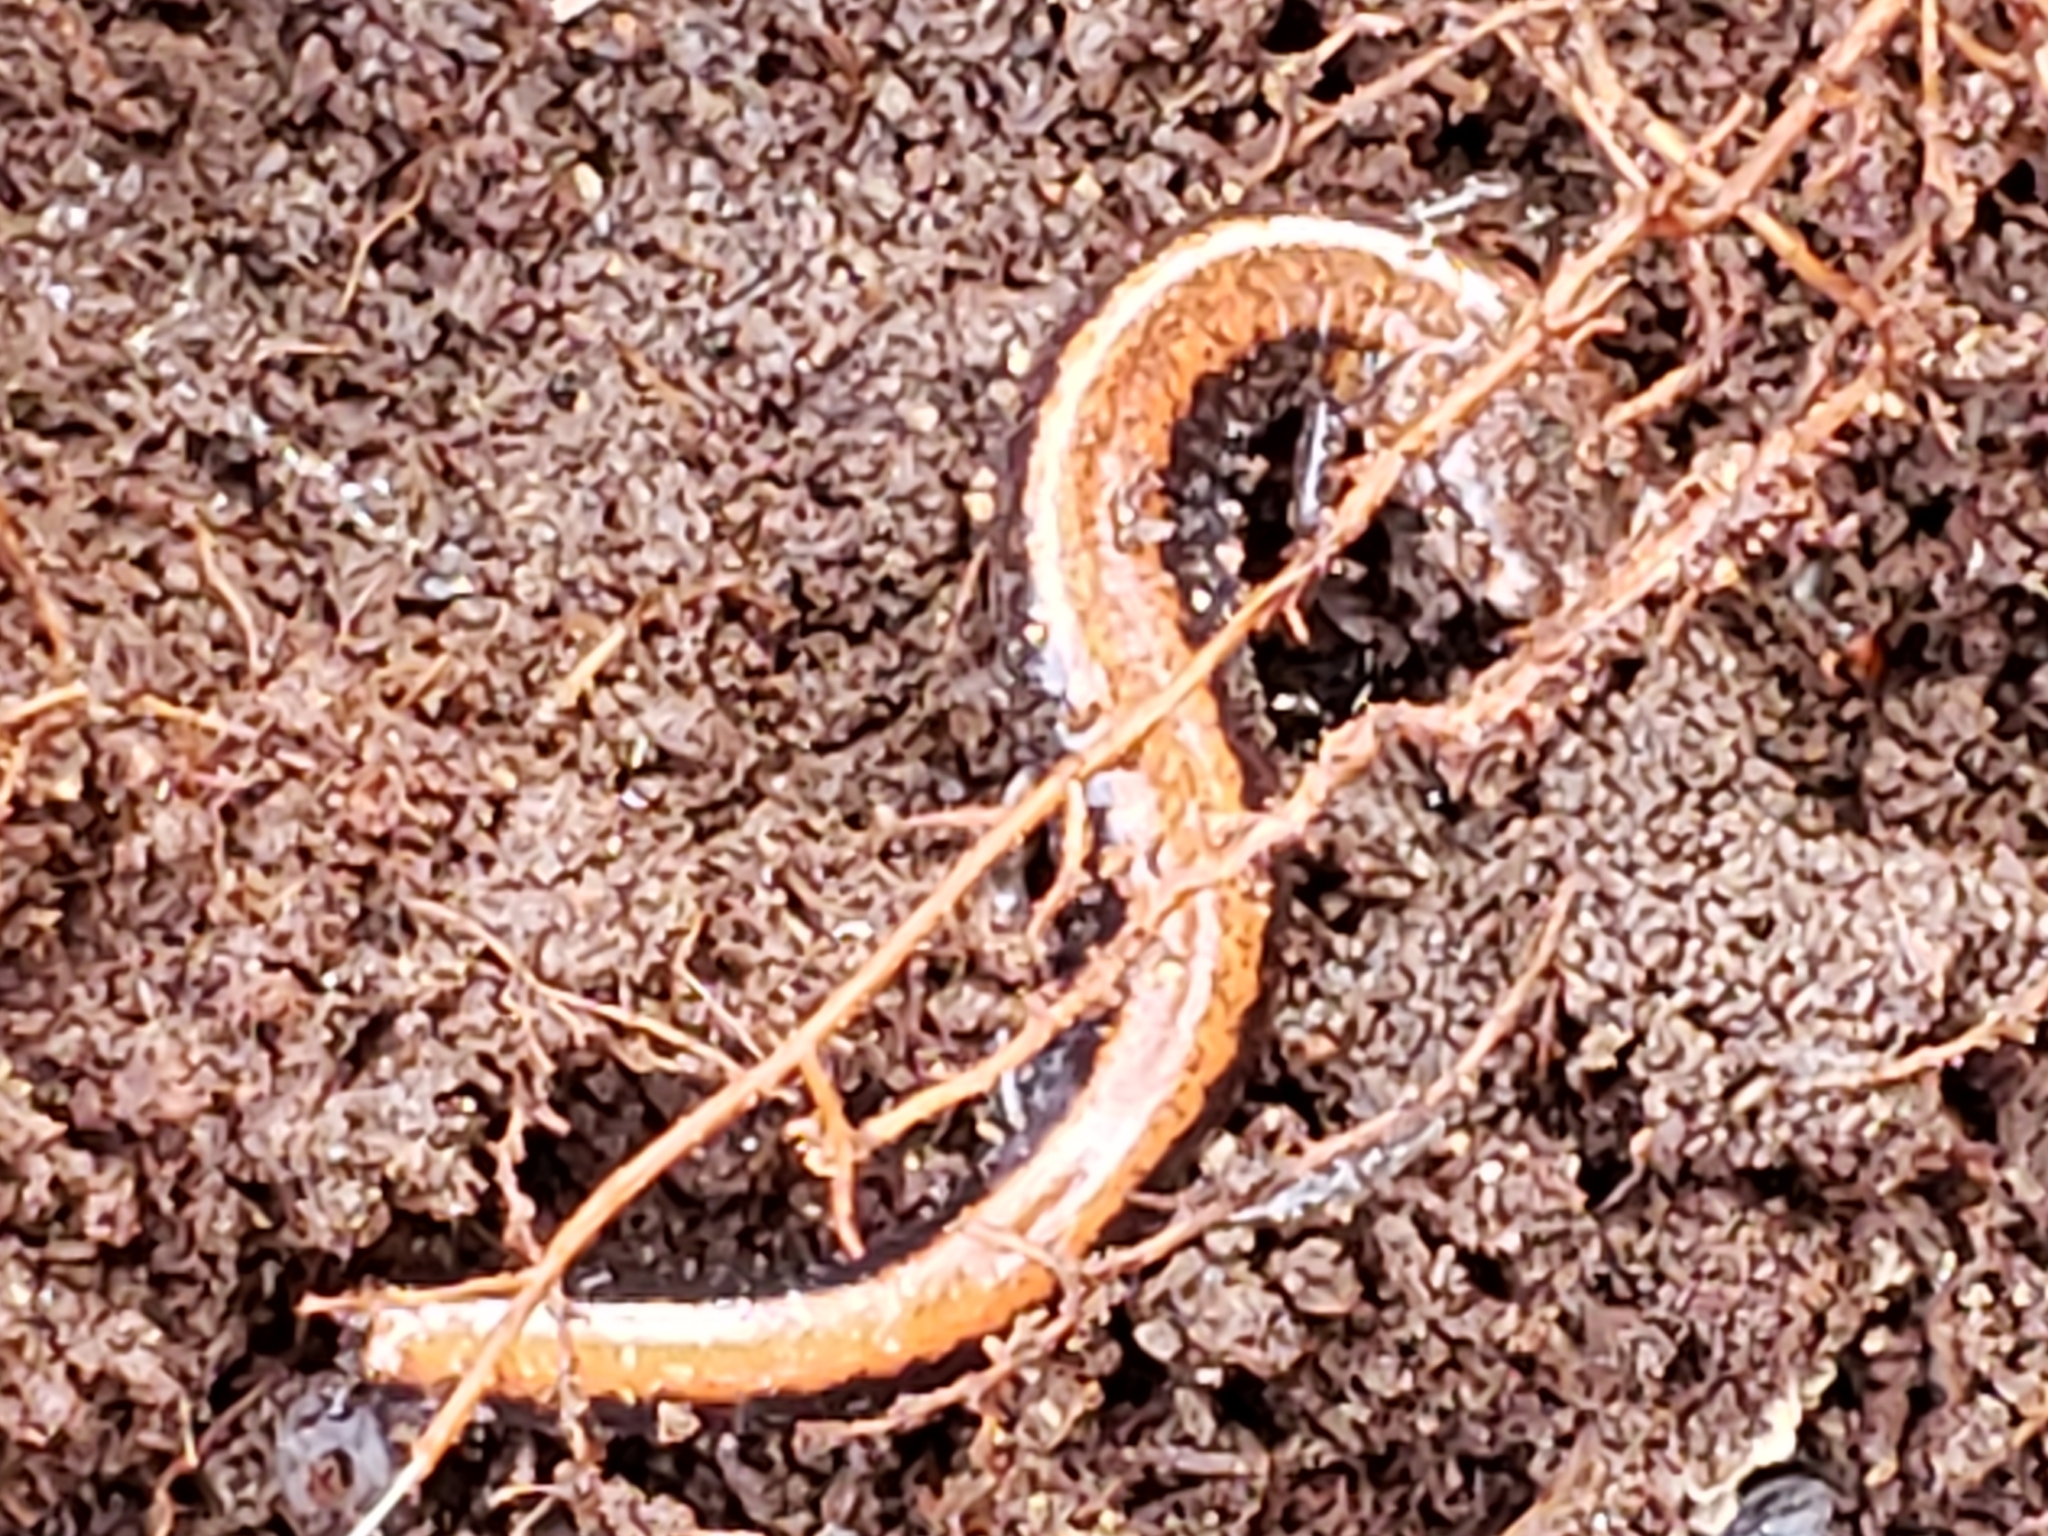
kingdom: Animalia
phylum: Chordata
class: Amphibia
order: Caudata
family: Plethodontidae
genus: Plethodon
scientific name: Plethodon cinereus
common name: Redback salamander
